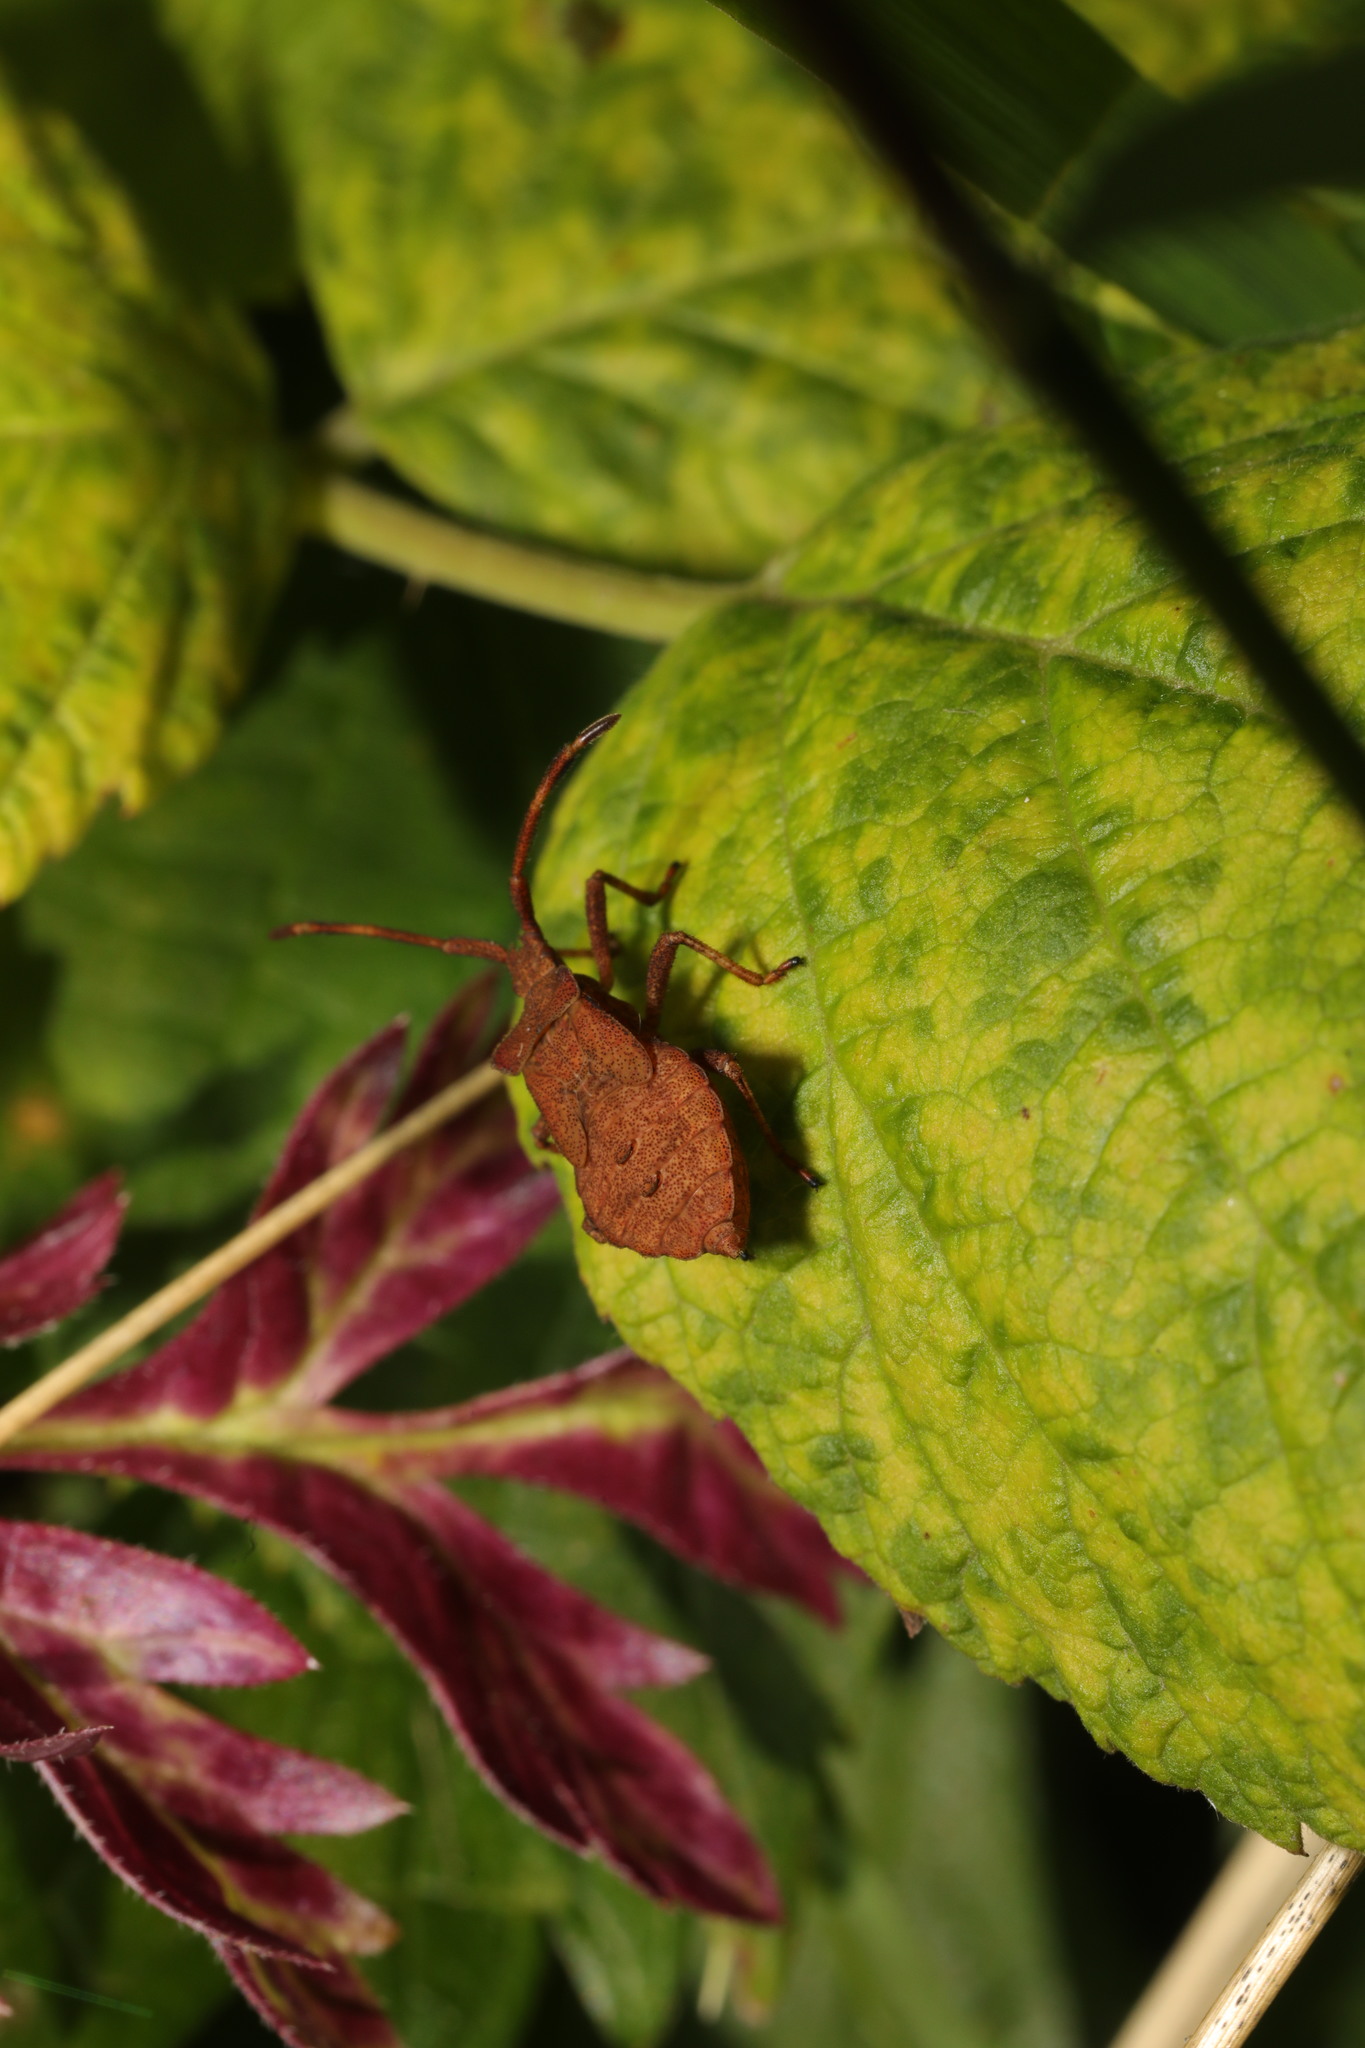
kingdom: Animalia
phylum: Arthropoda
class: Insecta
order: Hemiptera
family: Coreidae
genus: Coreus
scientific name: Coreus marginatus
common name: Dock bug
